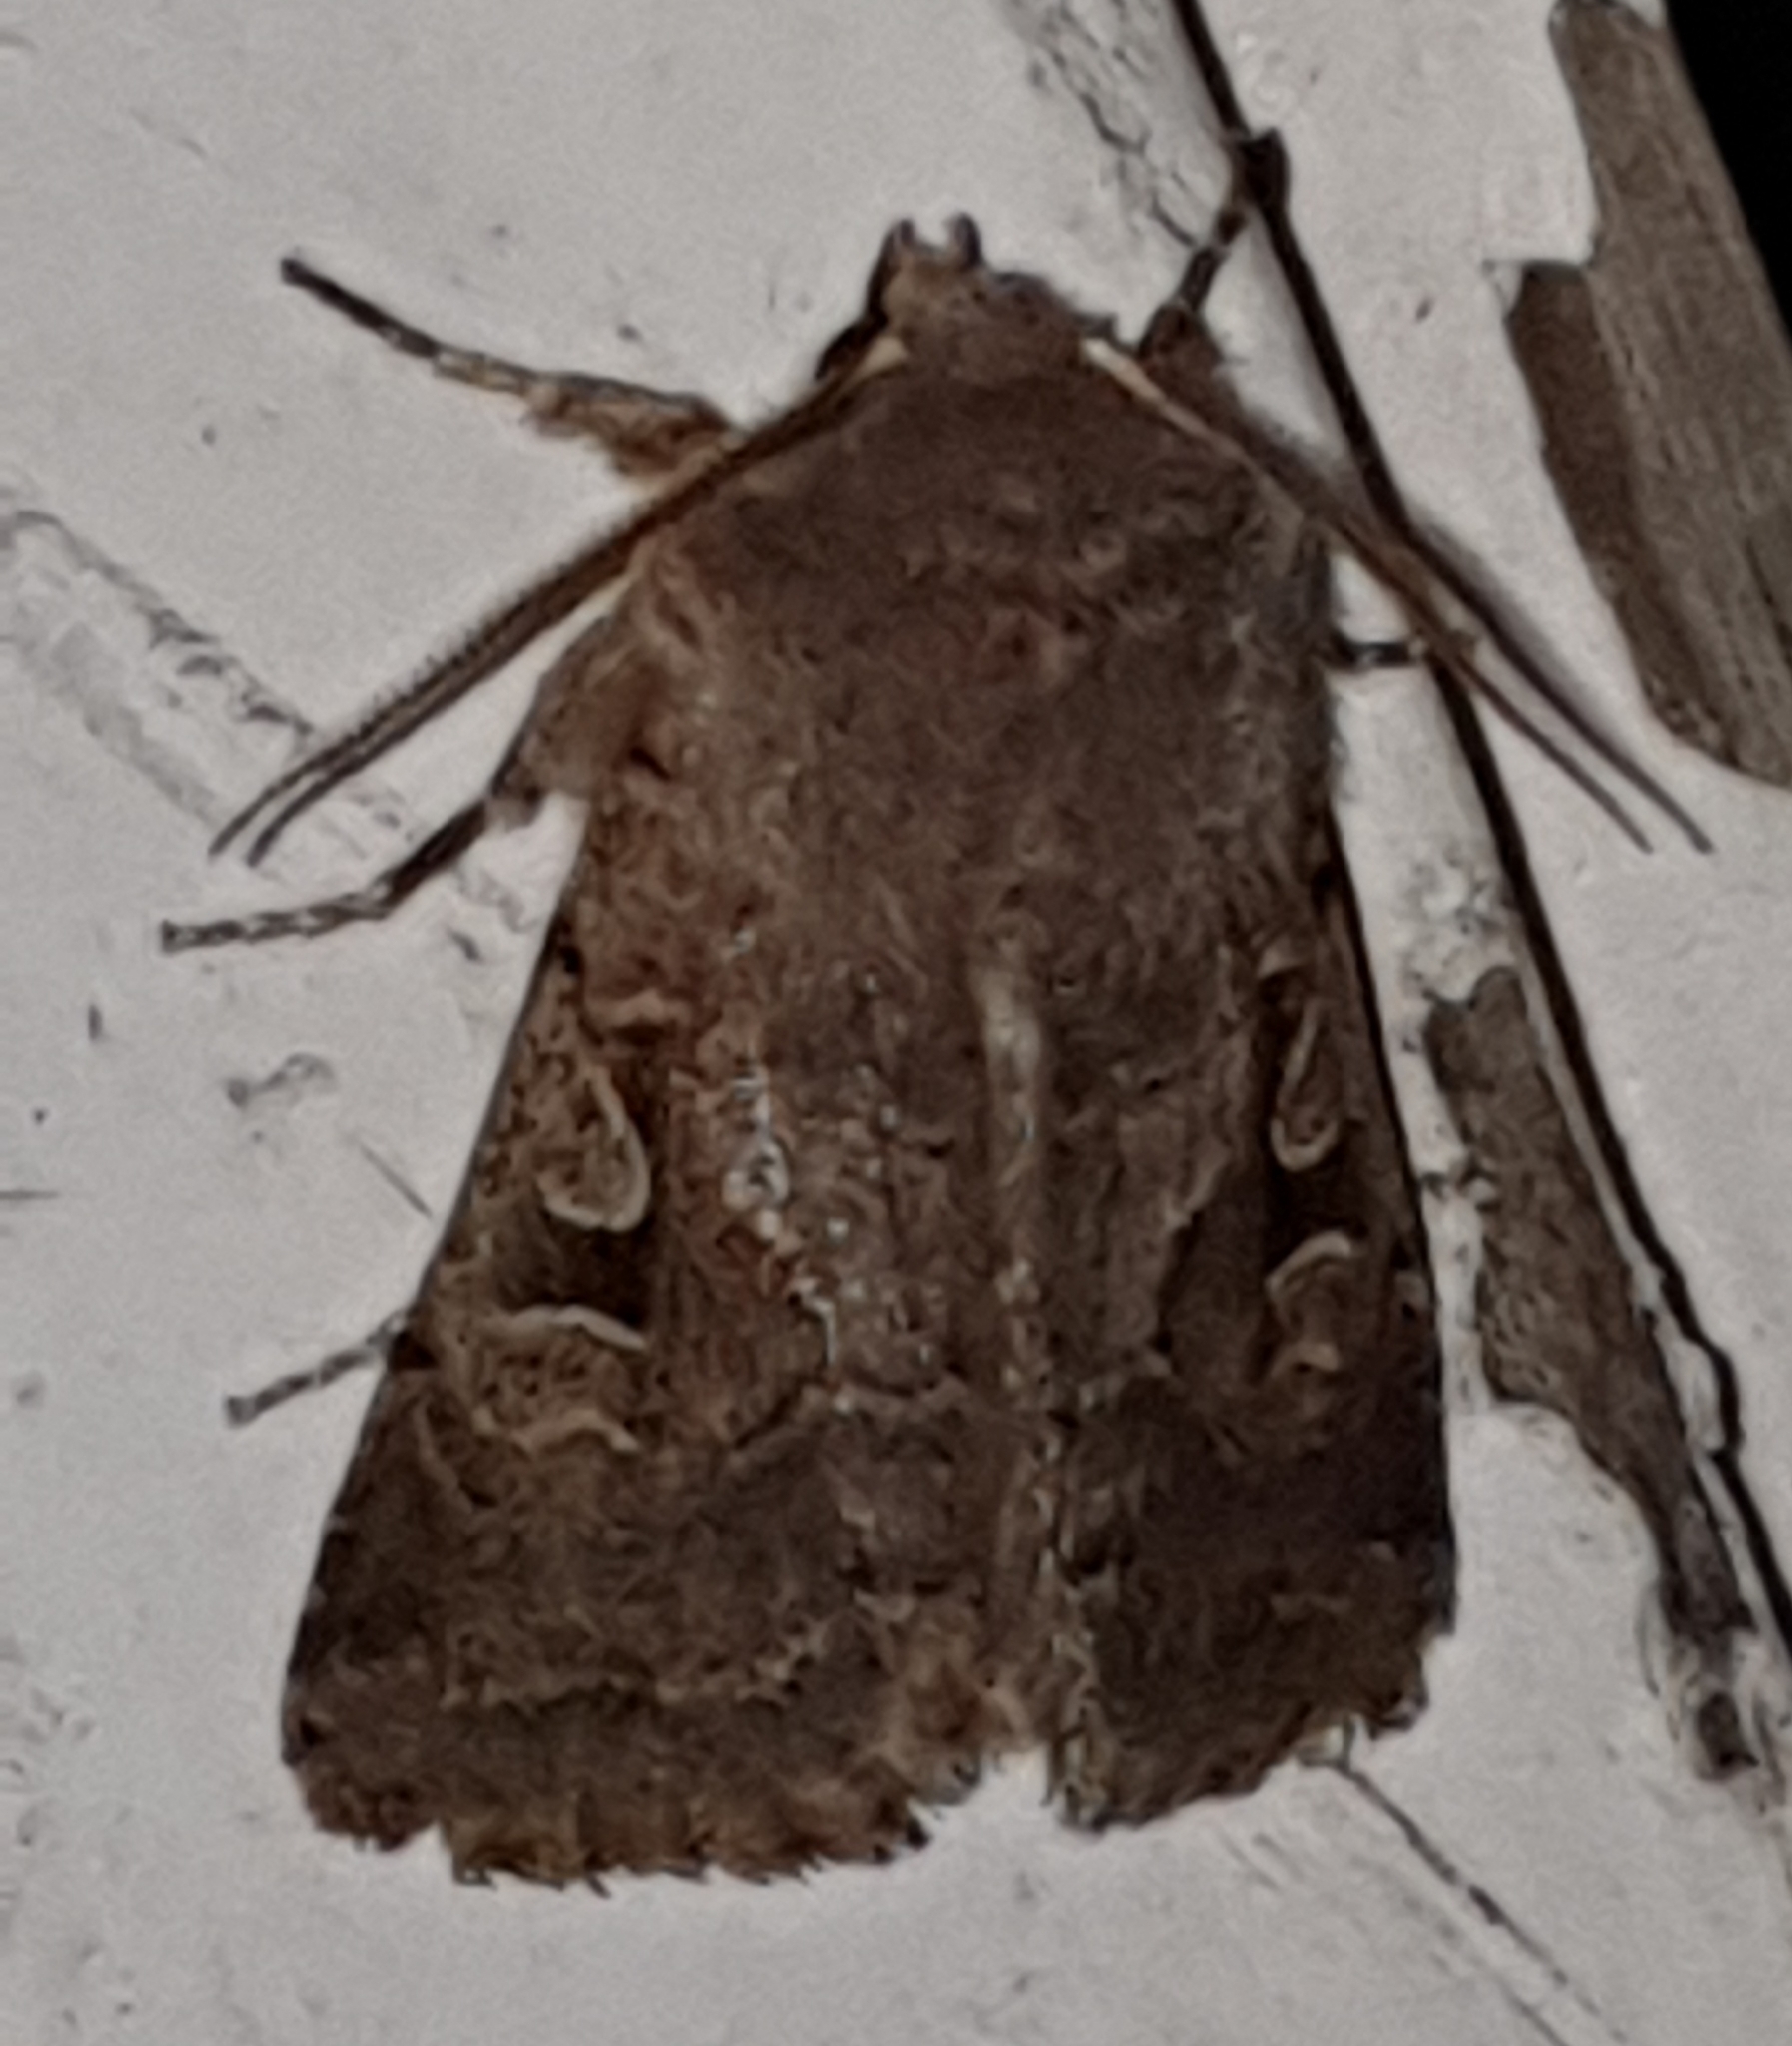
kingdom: Animalia
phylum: Arthropoda
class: Insecta
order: Lepidoptera
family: Noctuidae
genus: Orthosia
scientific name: Orthosia gothica
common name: Hebrew character
